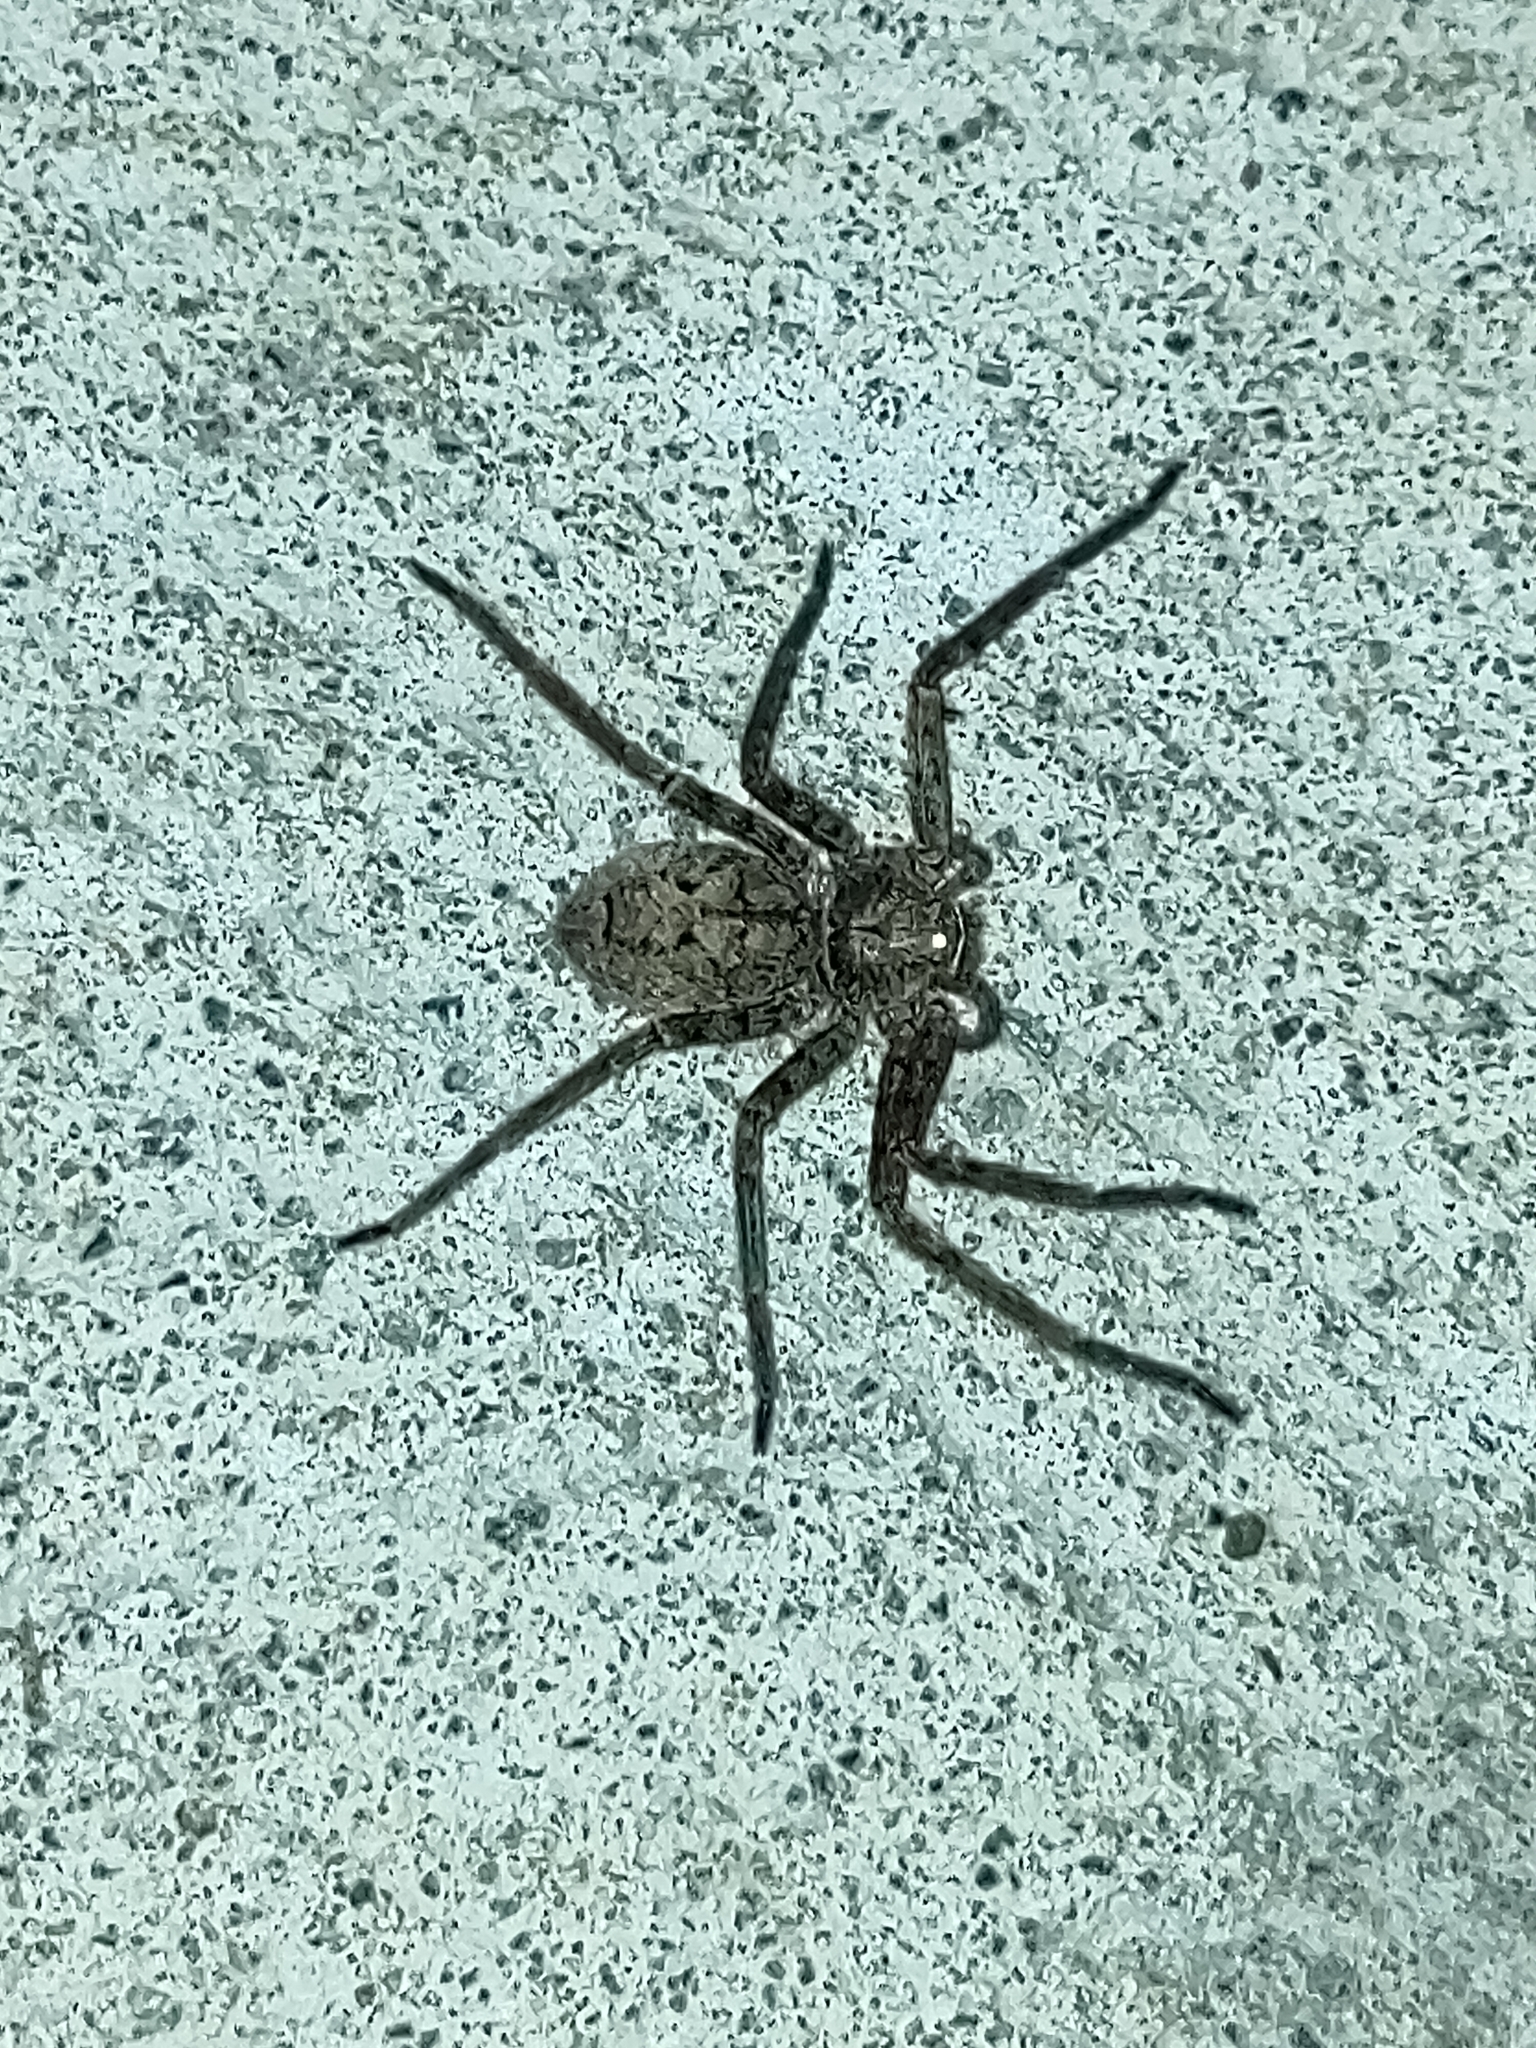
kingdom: Animalia
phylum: Arthropoda
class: Arachnida
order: Araneae
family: Sparassidae
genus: Heteropoda
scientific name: Heteropoda venatoria
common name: Huntsman spider
